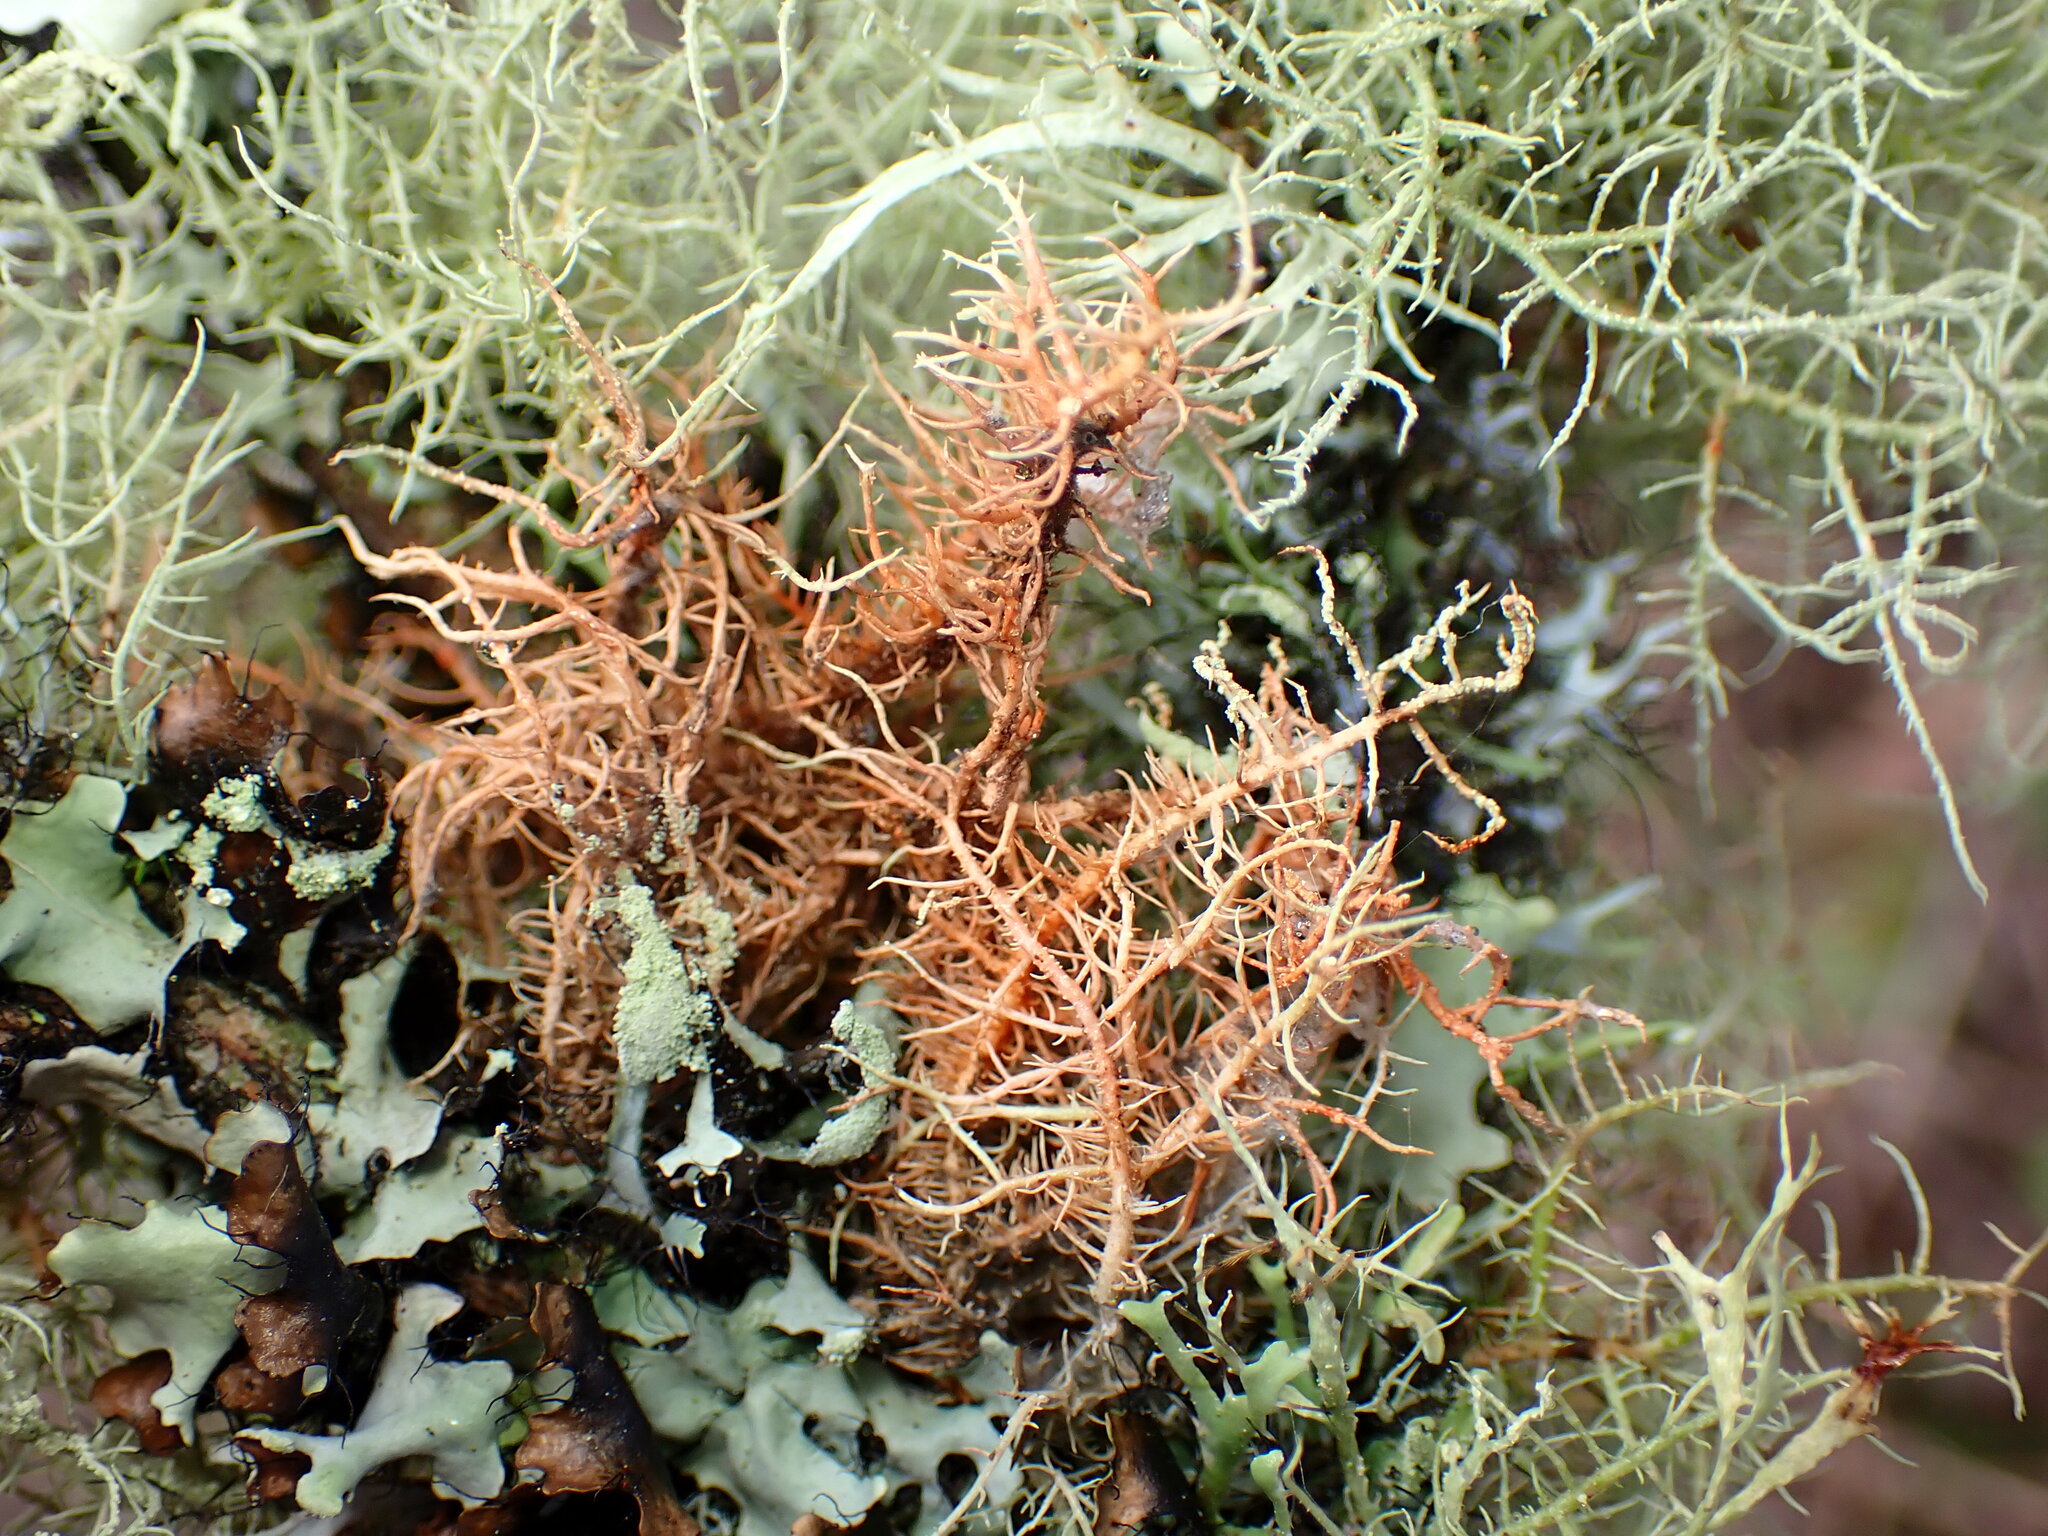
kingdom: Fungi
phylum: Ascomycota
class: Lecanoromycetes
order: Lecanorales
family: Parmeliaceae
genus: Usnea
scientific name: Usnea rubicunda
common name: Red beard lichen
